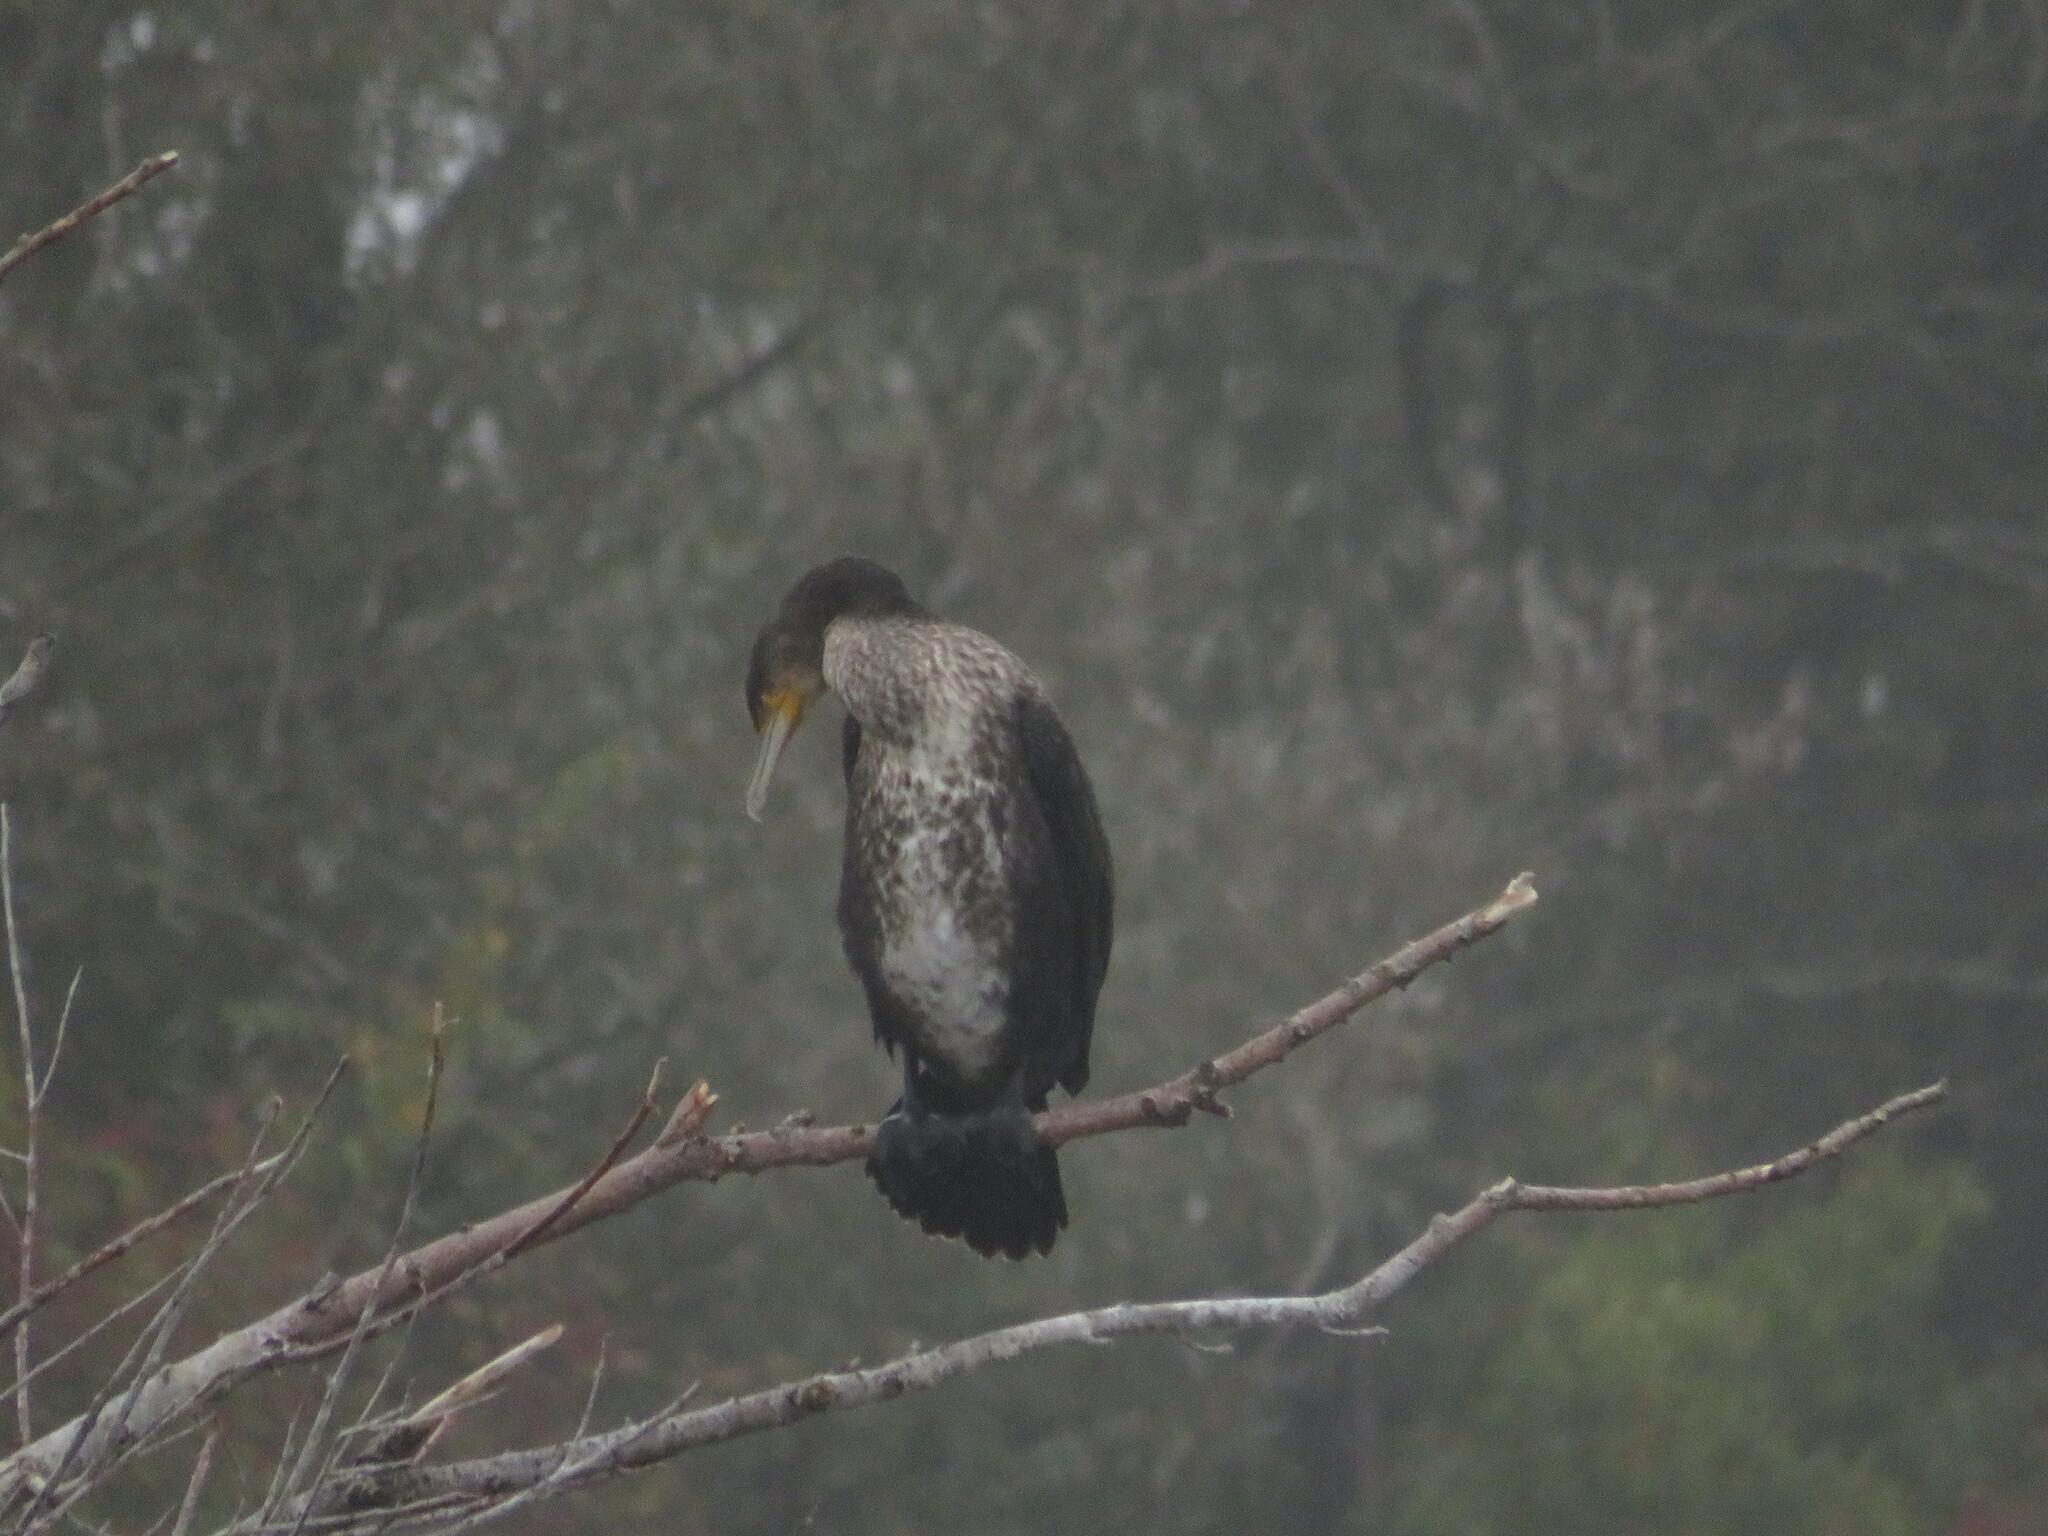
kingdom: Animalia
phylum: Chordata
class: Aves
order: Suliformes
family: Phalacrocoracidae
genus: Phalacrocorax
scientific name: Phalacrocorax carbo
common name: Great cormorant
